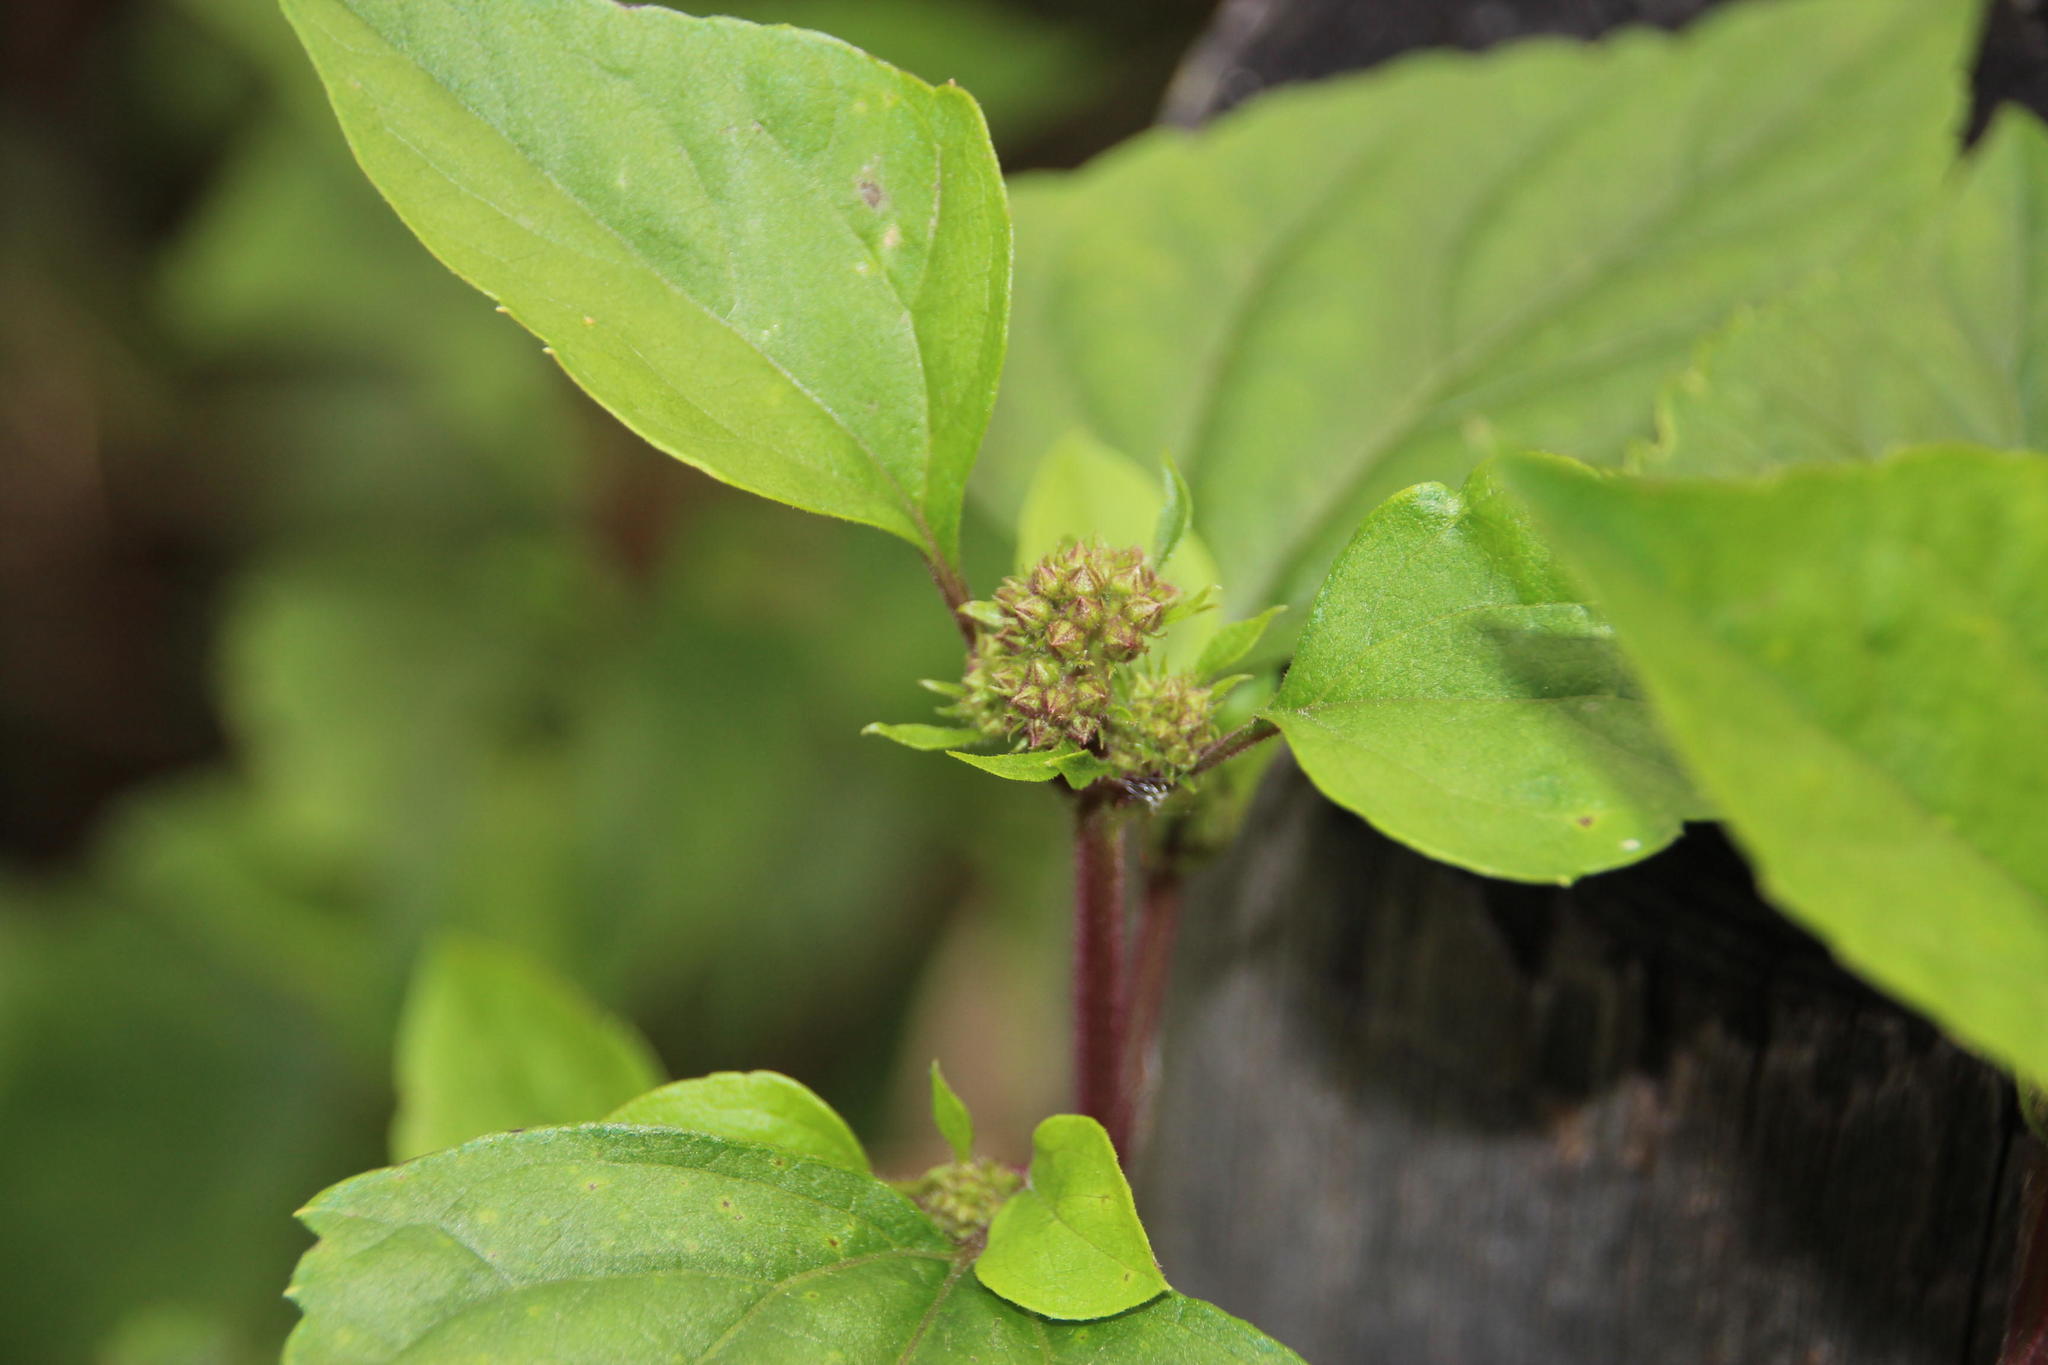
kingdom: Plantae
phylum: Tracheophyta
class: Magnoliopsida
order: Asterales
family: Asteraceae
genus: Ageratina
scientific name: Ageratina adenophora
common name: Sticky snakeroot
